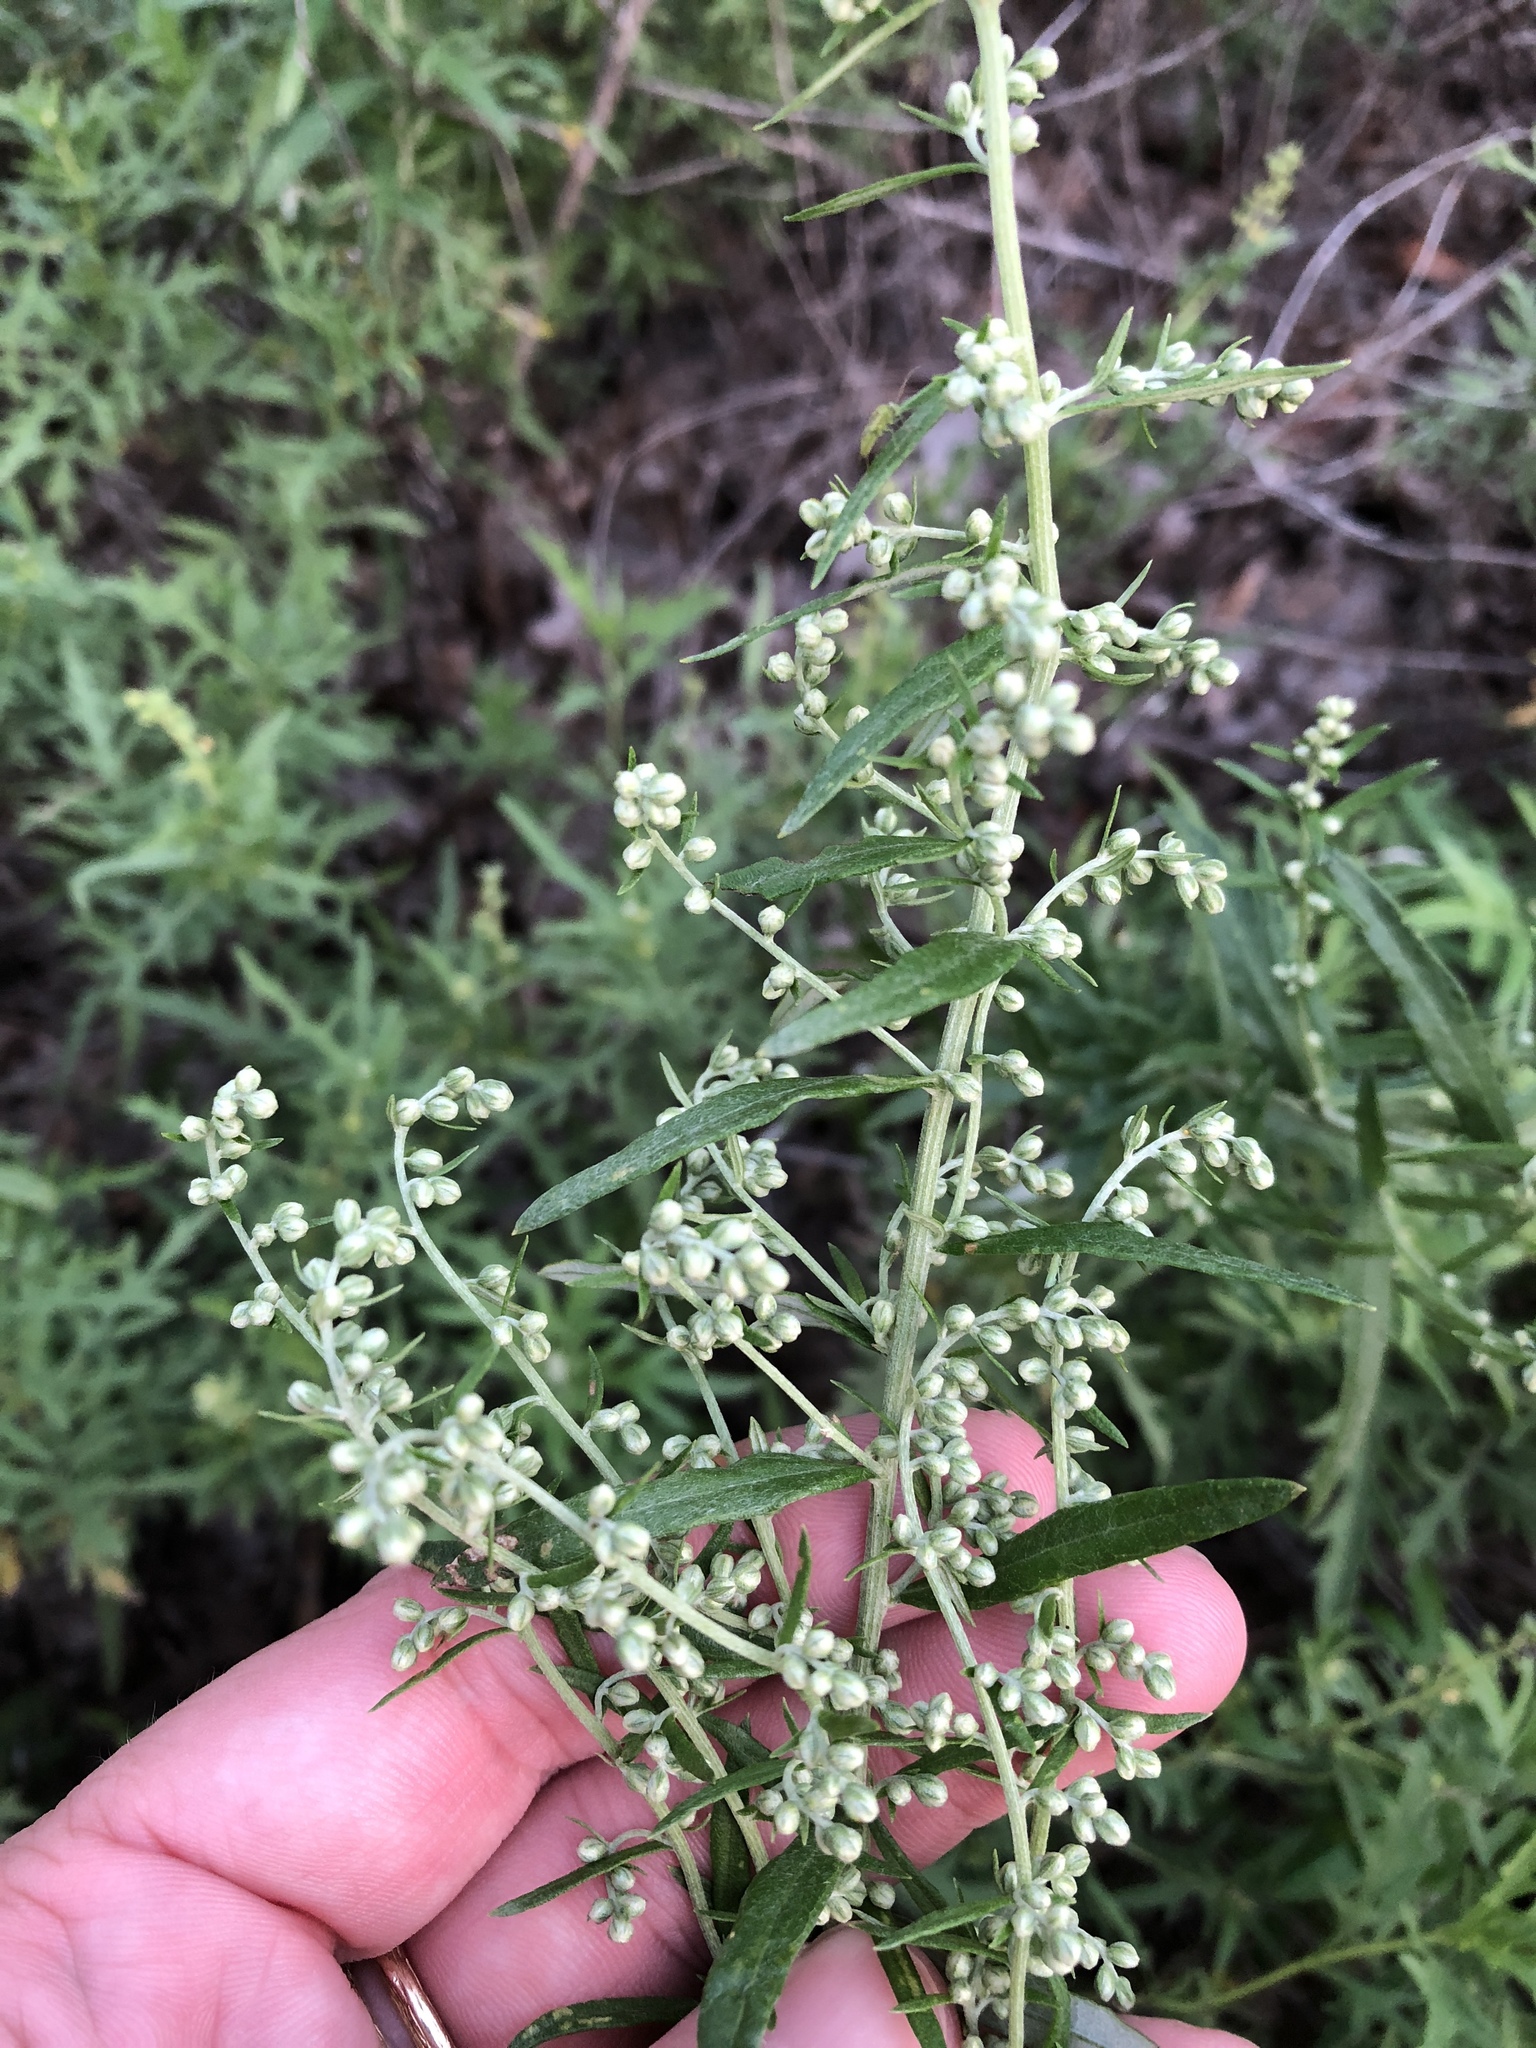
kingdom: Plantae
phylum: Tracheophyta
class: Magnoliopsida
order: Asterales
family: Asteraceae
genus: Artemisia
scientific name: Artemisia ludoviciana
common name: Western mugwort
